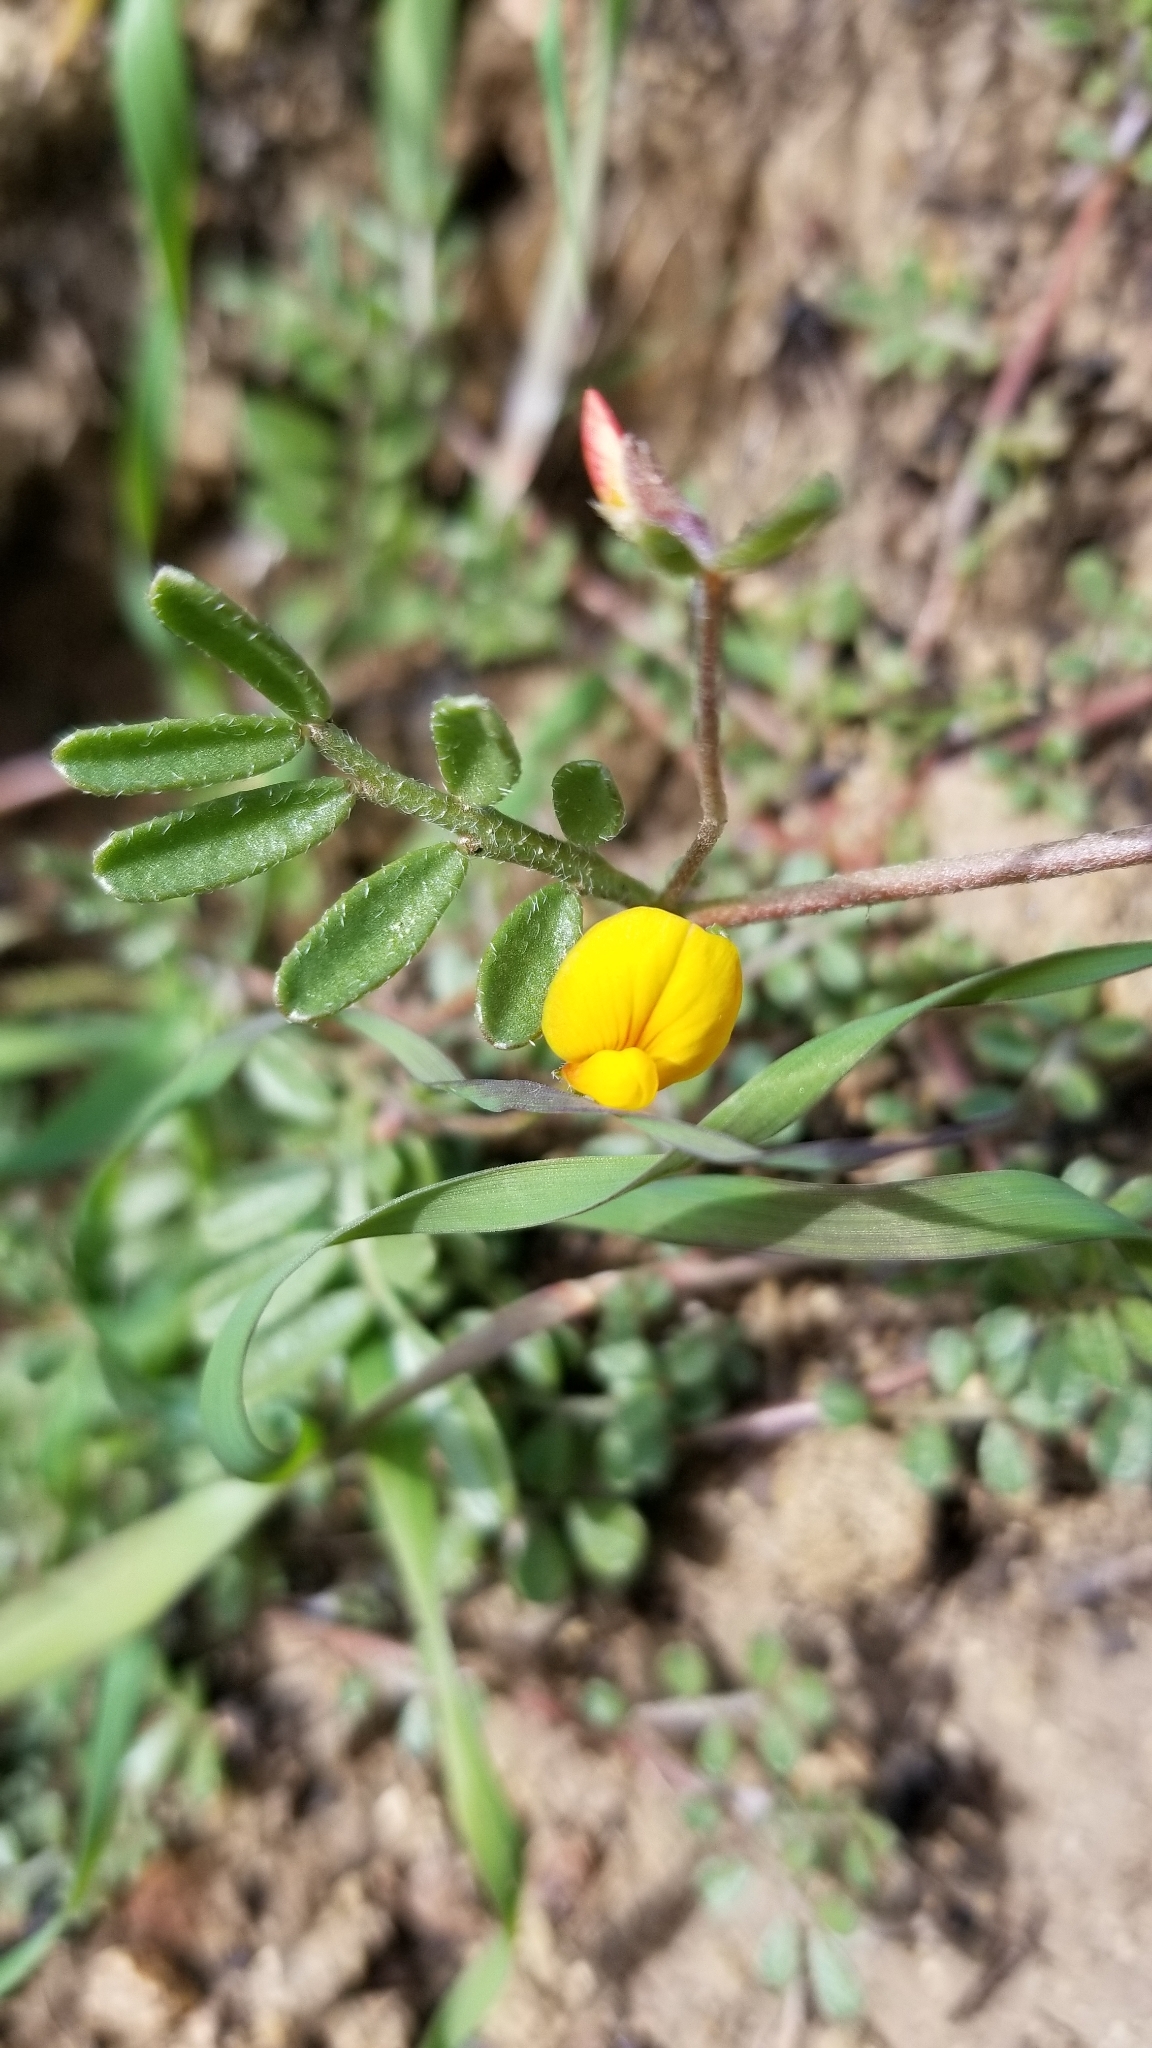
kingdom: Plantae
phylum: Tracheophyta
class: Magnoliopsida
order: Fabales
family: Fabaceae
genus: Acmispon
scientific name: Acmispon strigosus
